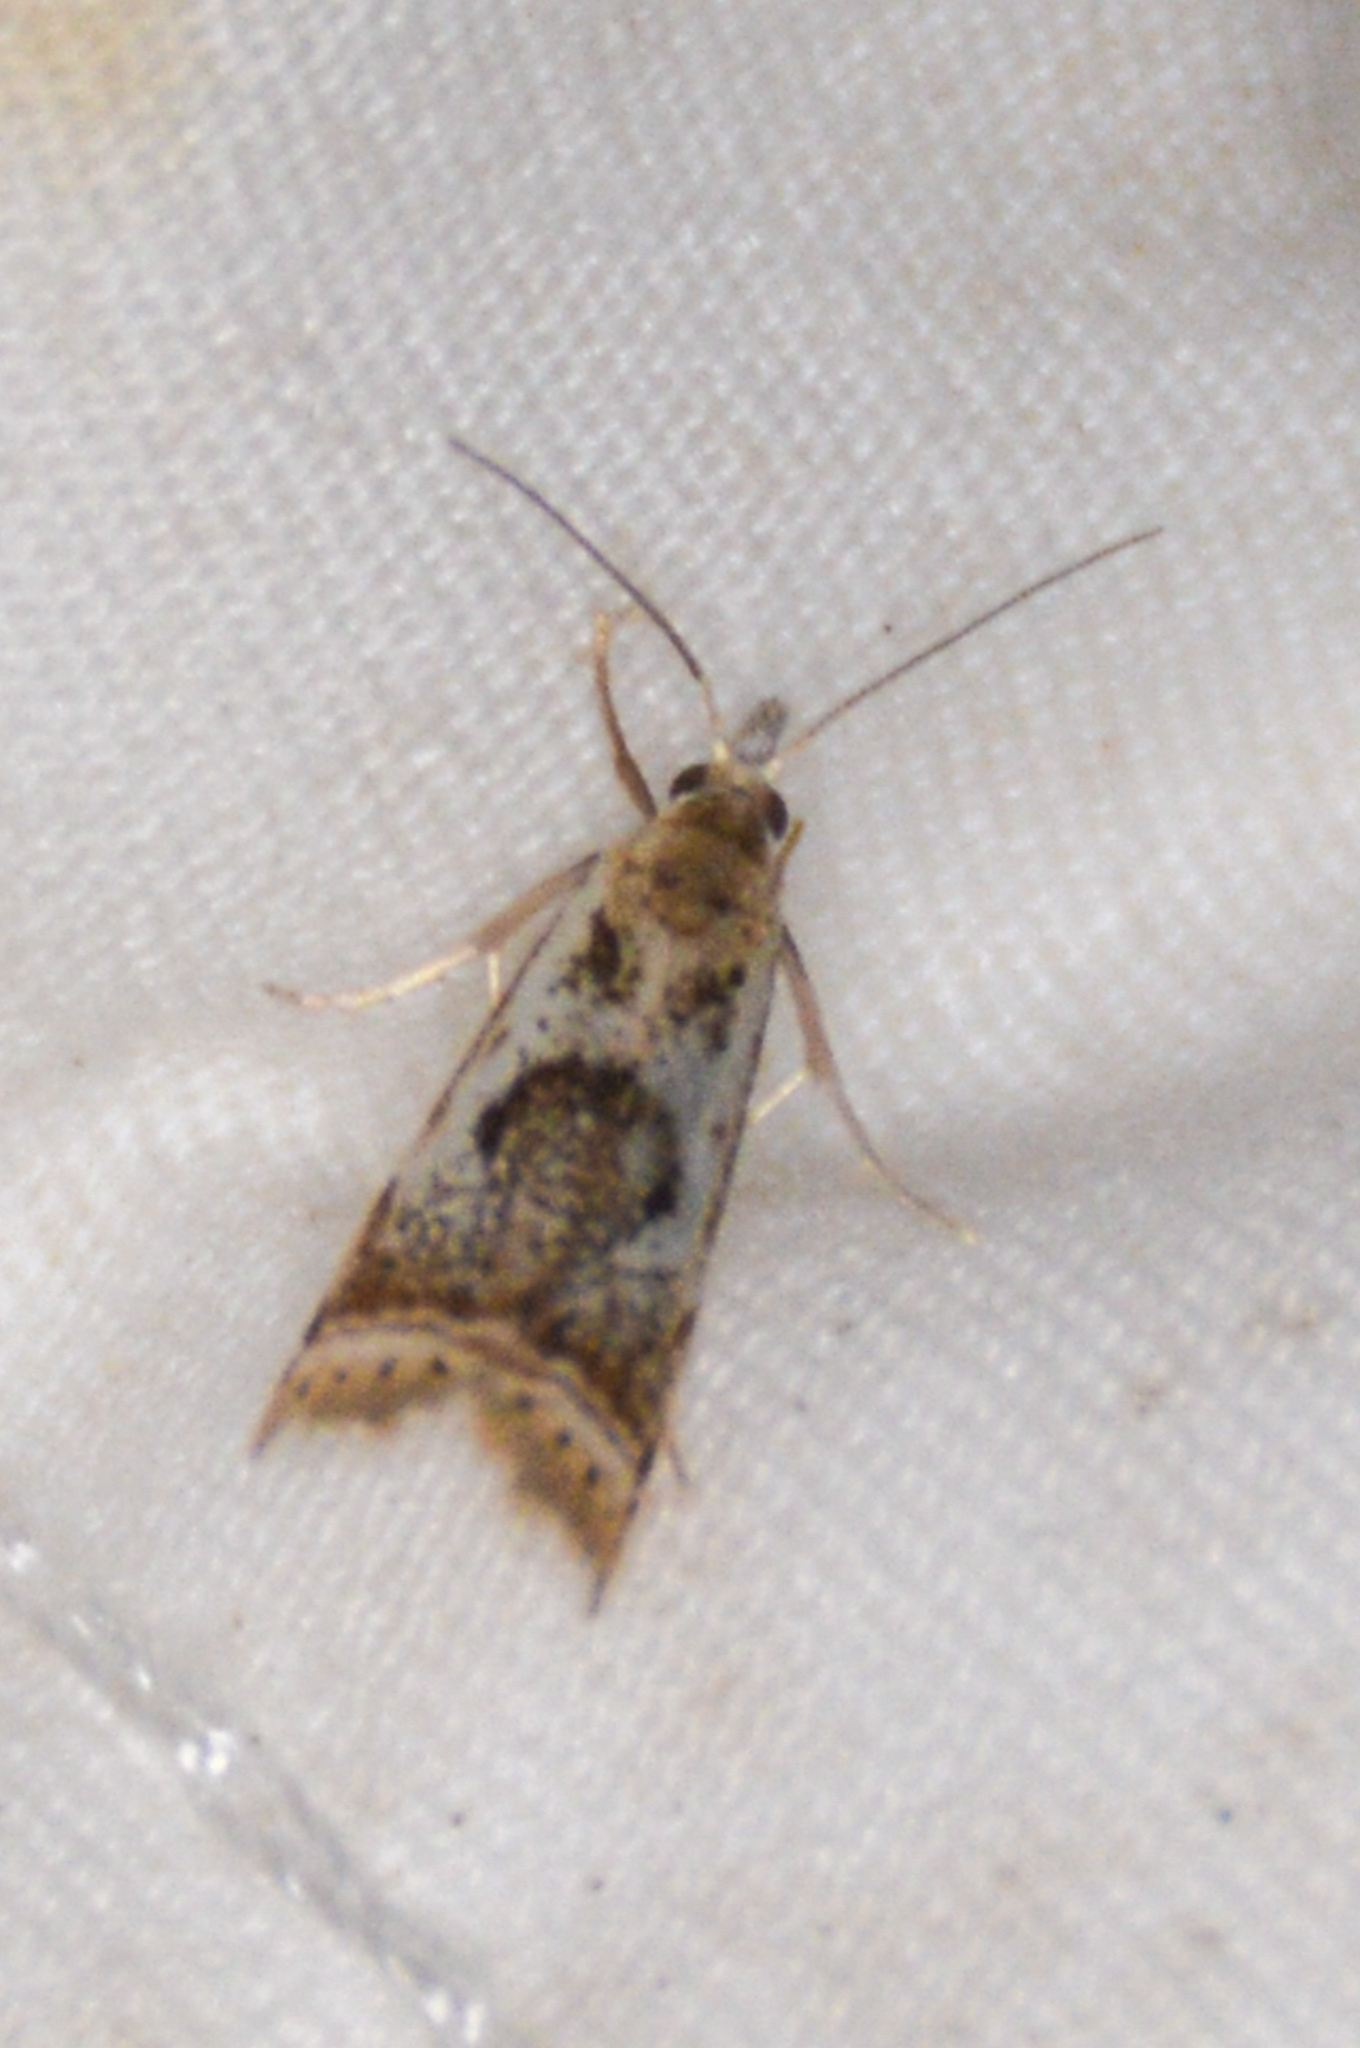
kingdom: Animalia
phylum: Arthropoda
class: Insecta
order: Lepidoptera
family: Crambidae
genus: Microcrambus
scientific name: Microcrambus elegans
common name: Elegant grass-veneer
